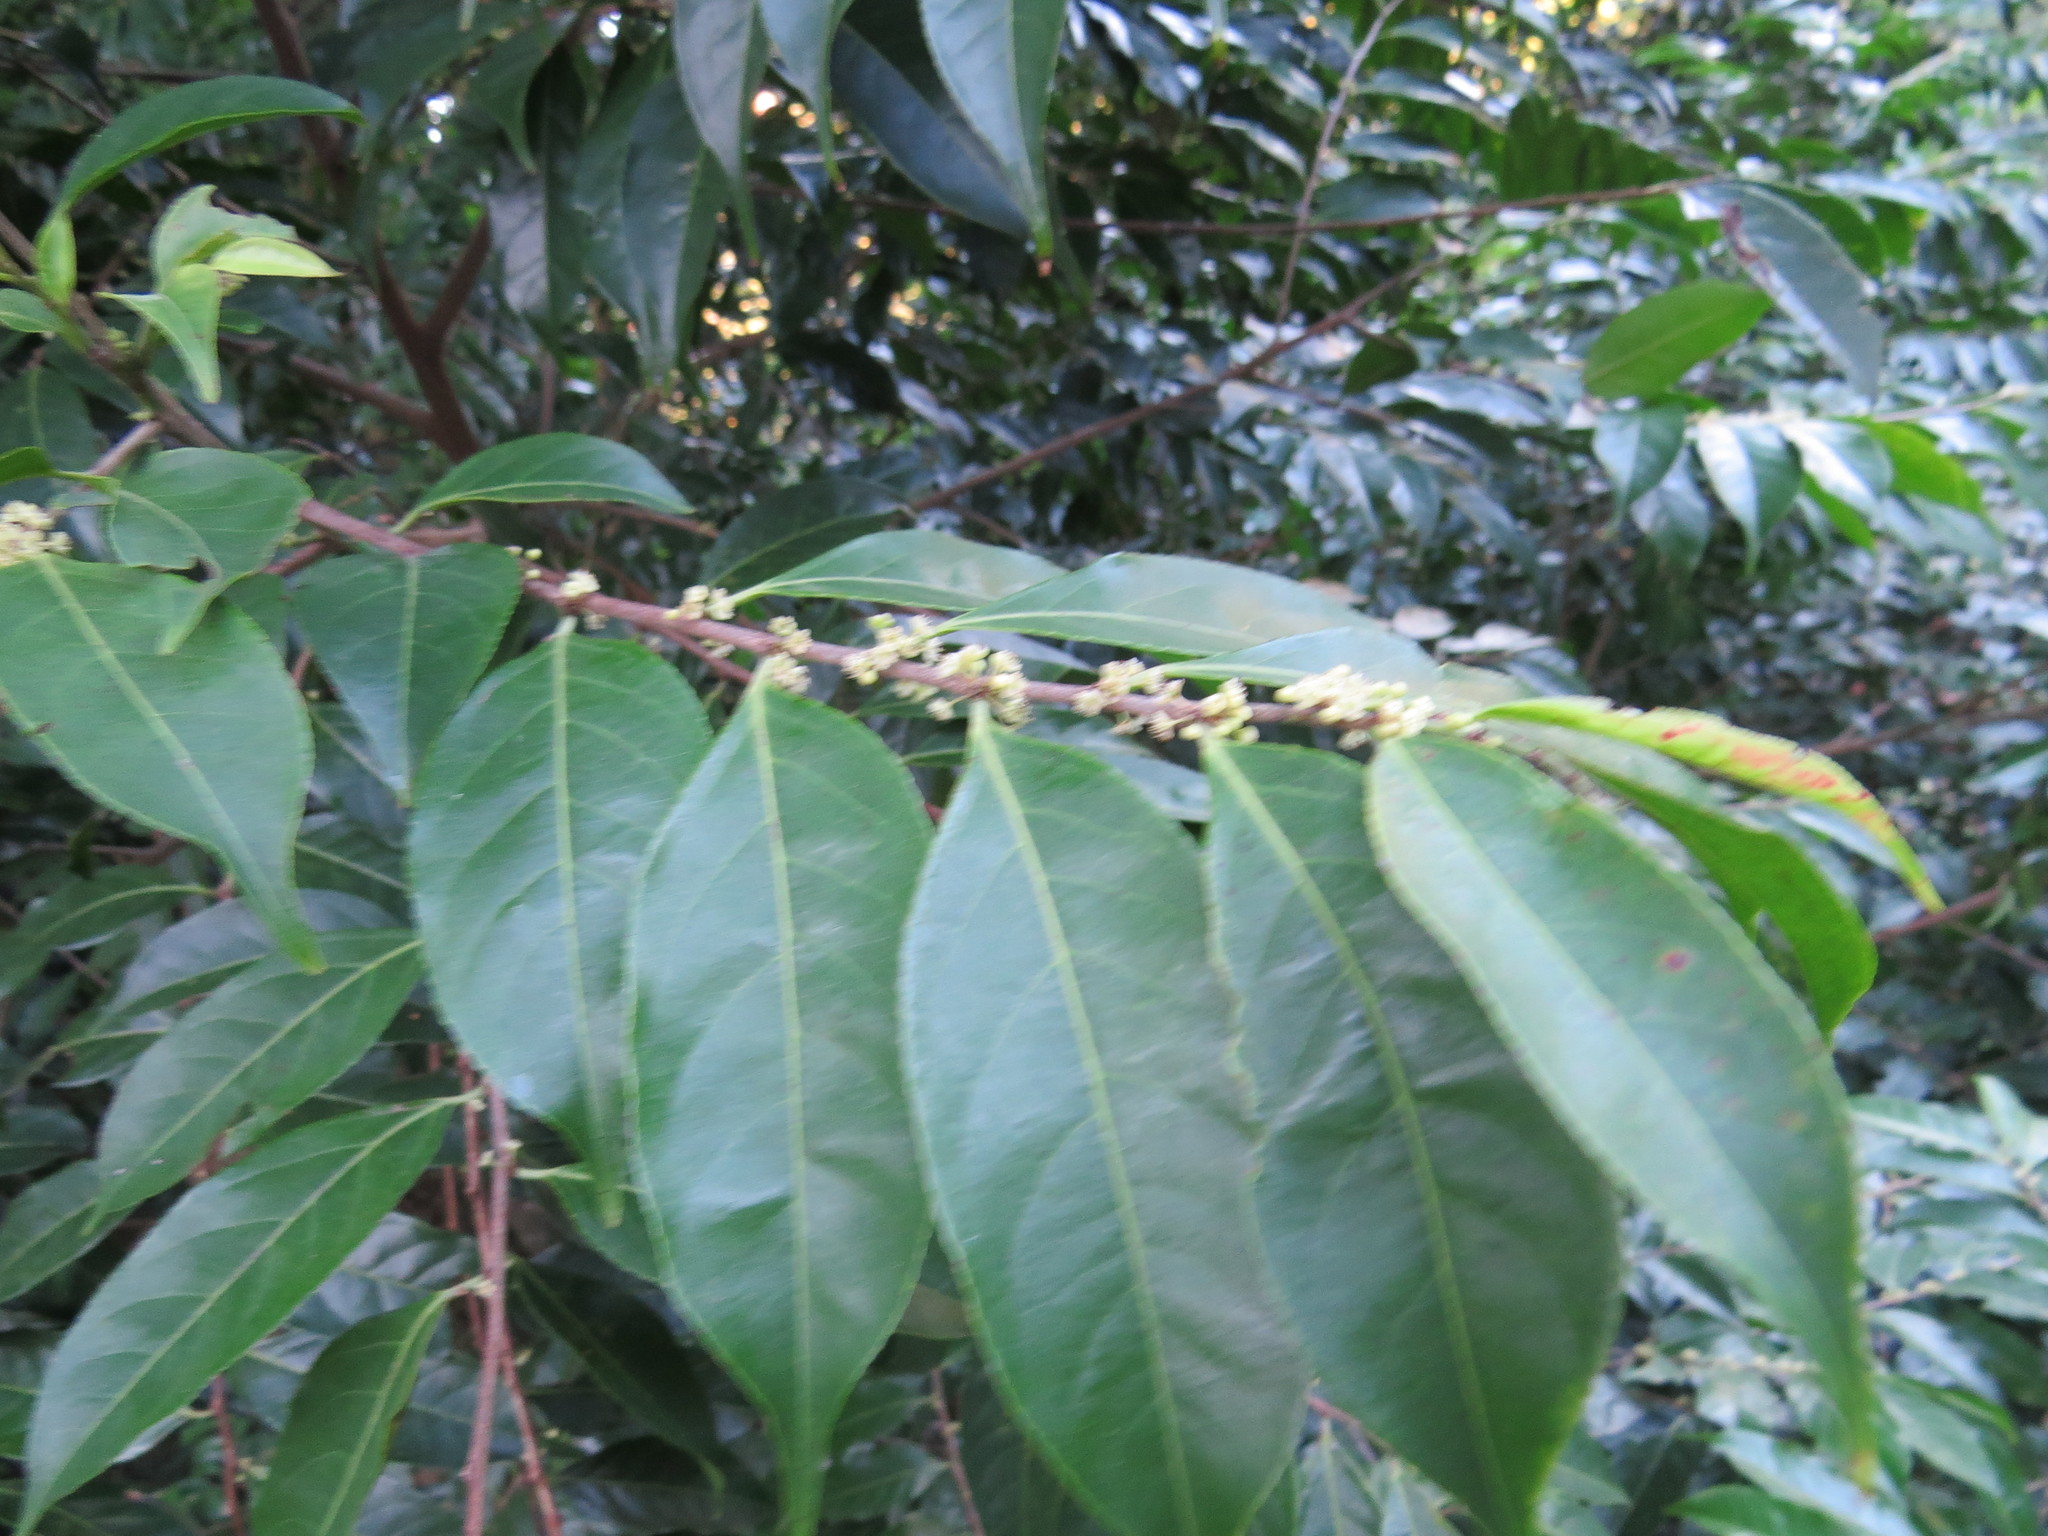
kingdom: Plantae
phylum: Tracheophyta
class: Magnoliopsida
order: Malpighiales
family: Salicaceae
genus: Casearia
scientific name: Casearia sylvestris
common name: Wild sage
